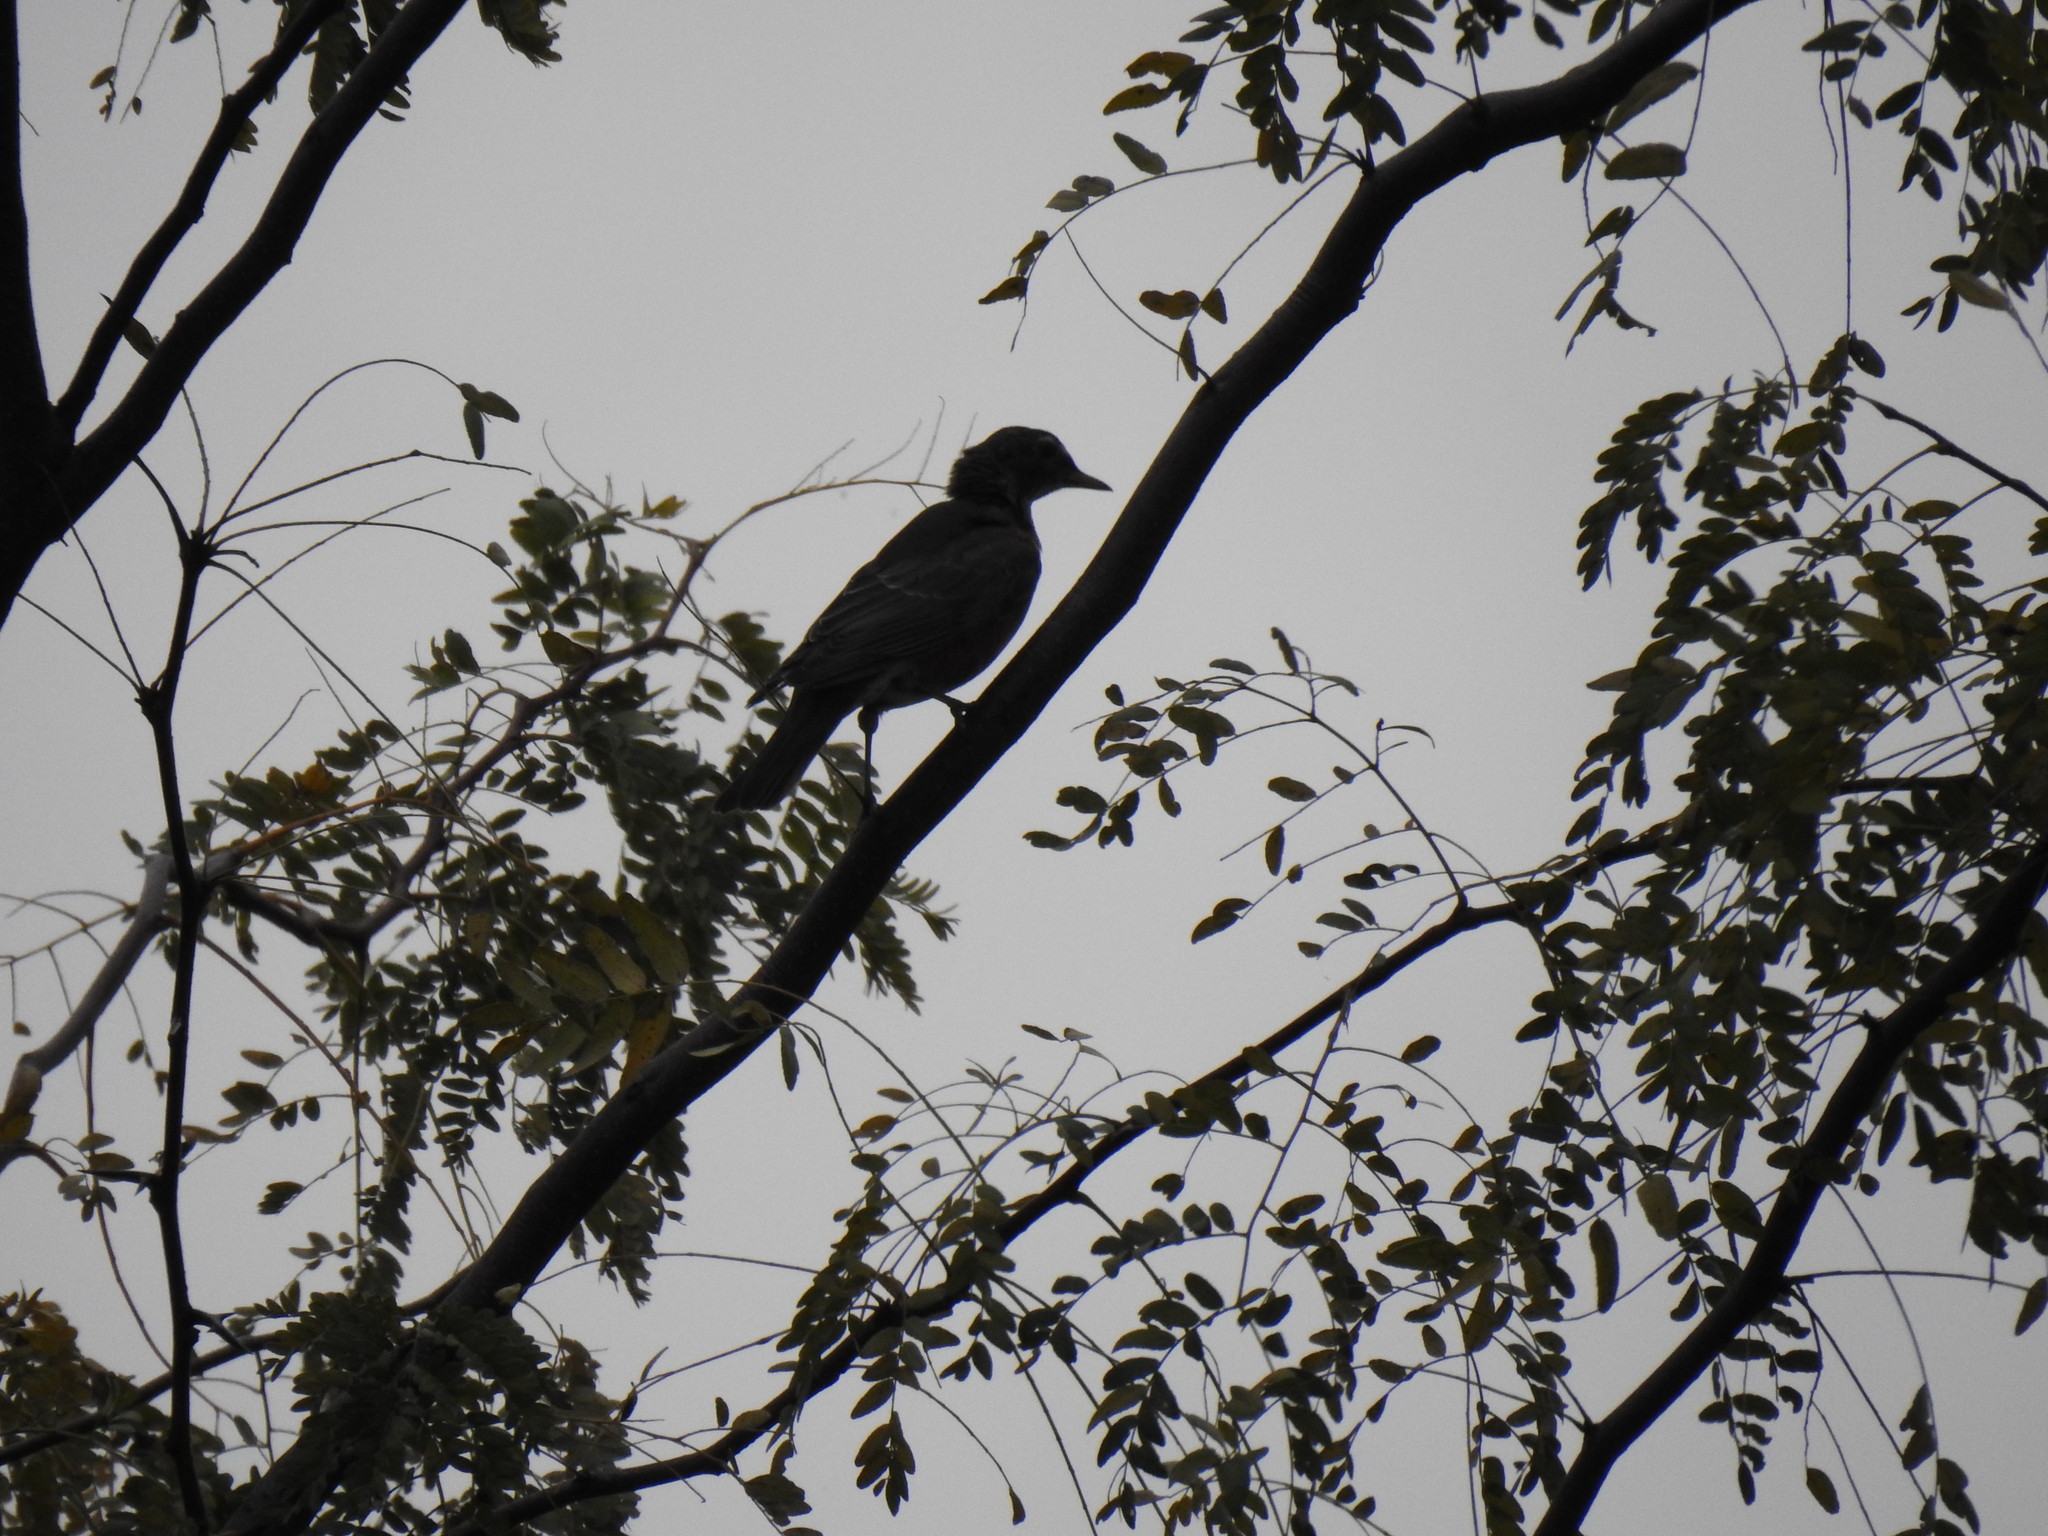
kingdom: Animalia
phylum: Chordata
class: Aves
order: Passeriformes
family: Turdidae
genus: Turdus
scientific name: Turdus migratorius
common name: American robin
